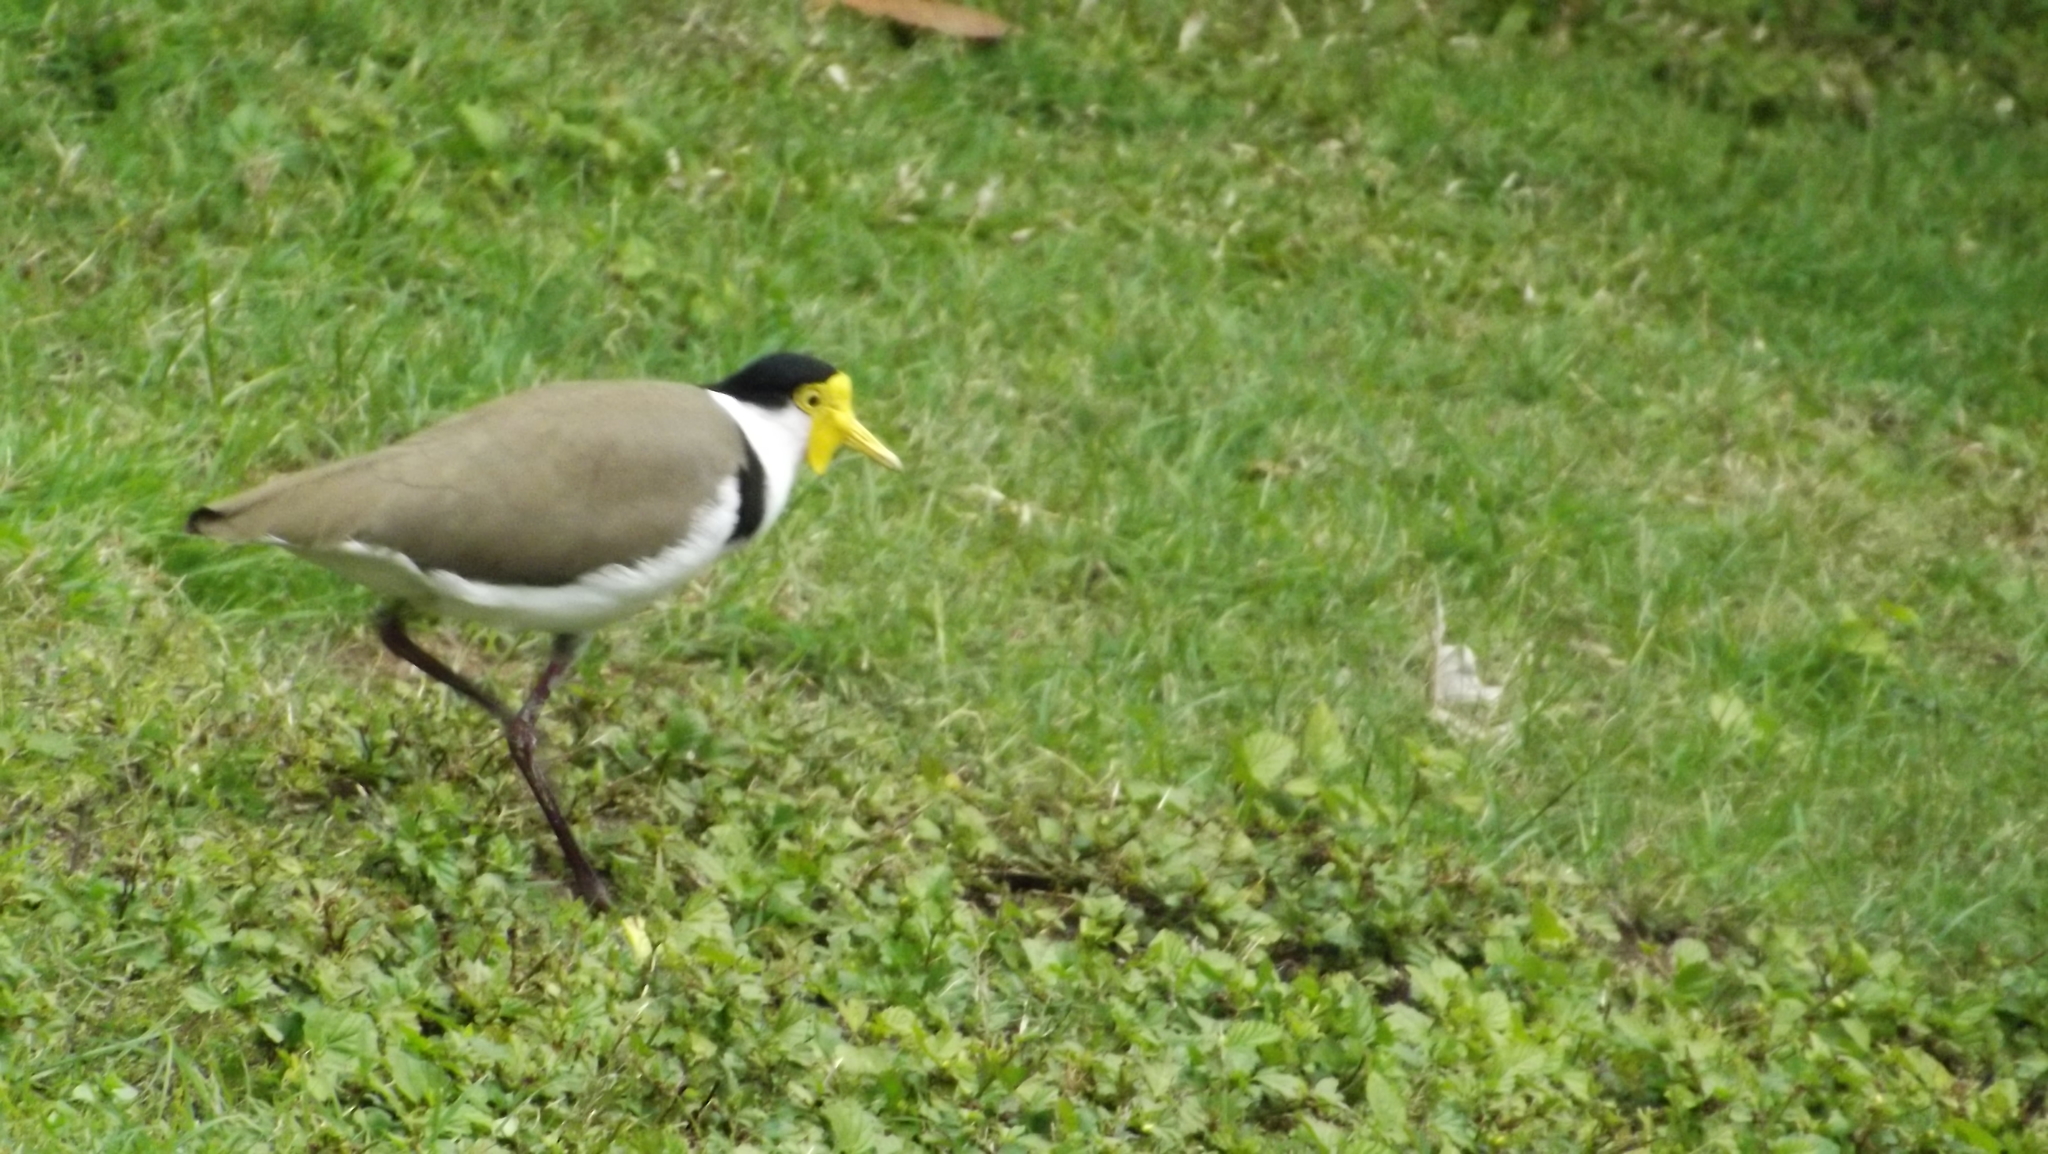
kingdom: Animalia
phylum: Chordata
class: Aves
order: Charadriiformes
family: Charadriidae
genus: Vanellus
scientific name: Vanellus miles
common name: Masked lapwing
